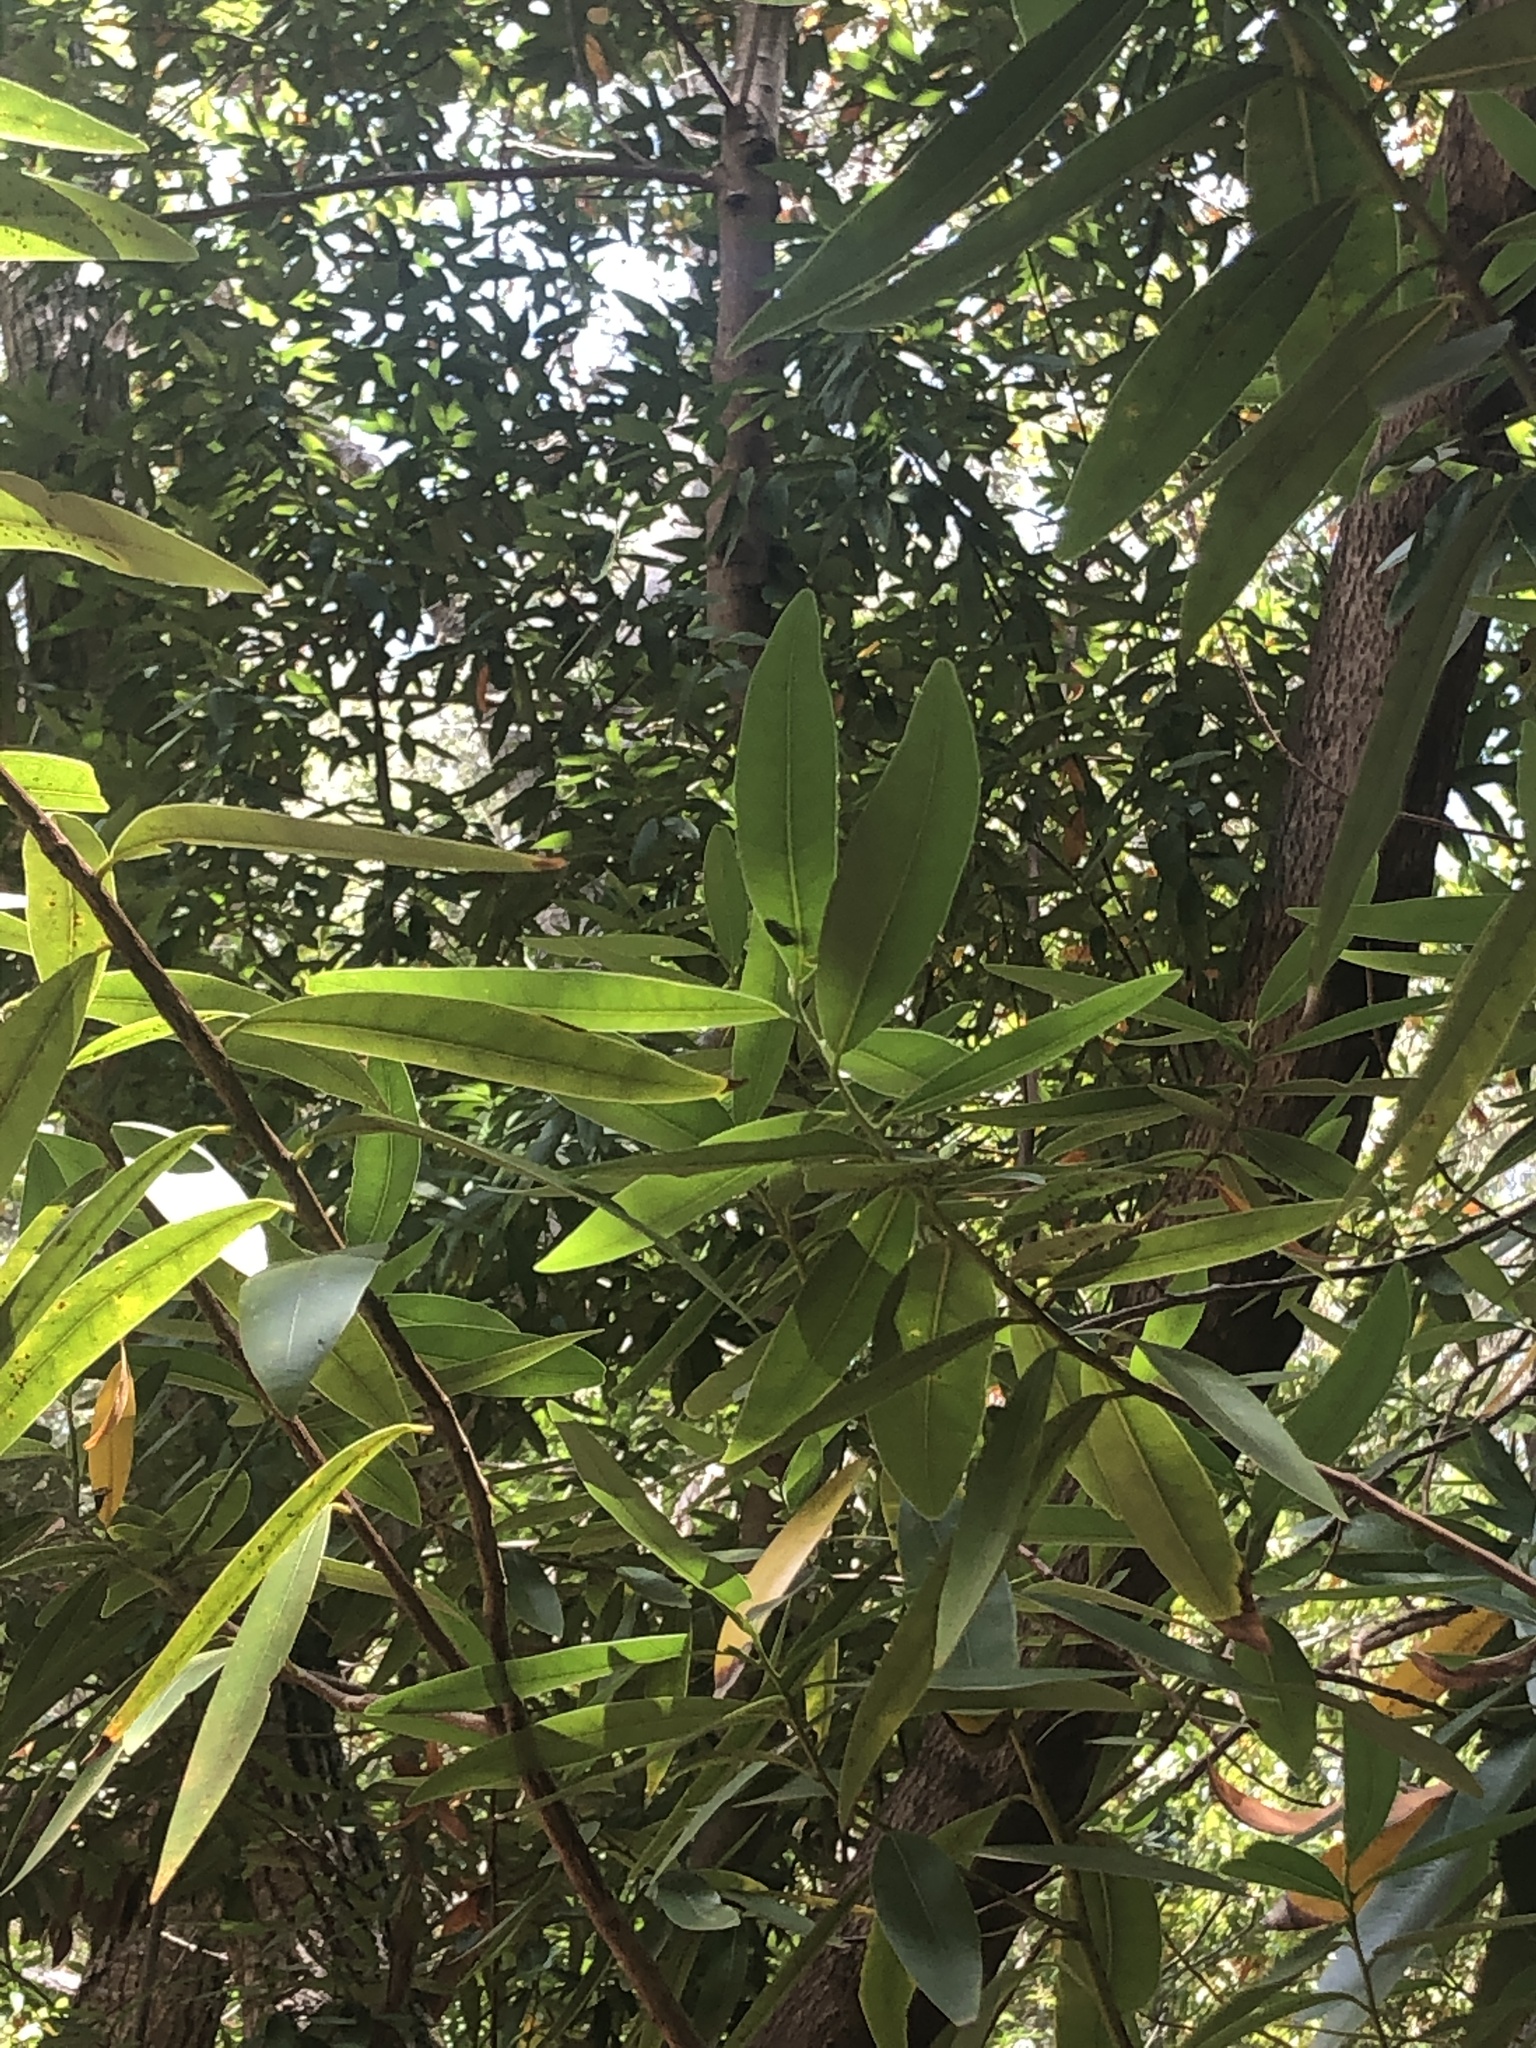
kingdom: Plantae
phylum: Tracheophyta
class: Magnoliopsida
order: Laurales
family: Lauraceae
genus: Umbellularia
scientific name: Umbellularia californica
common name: California bay
